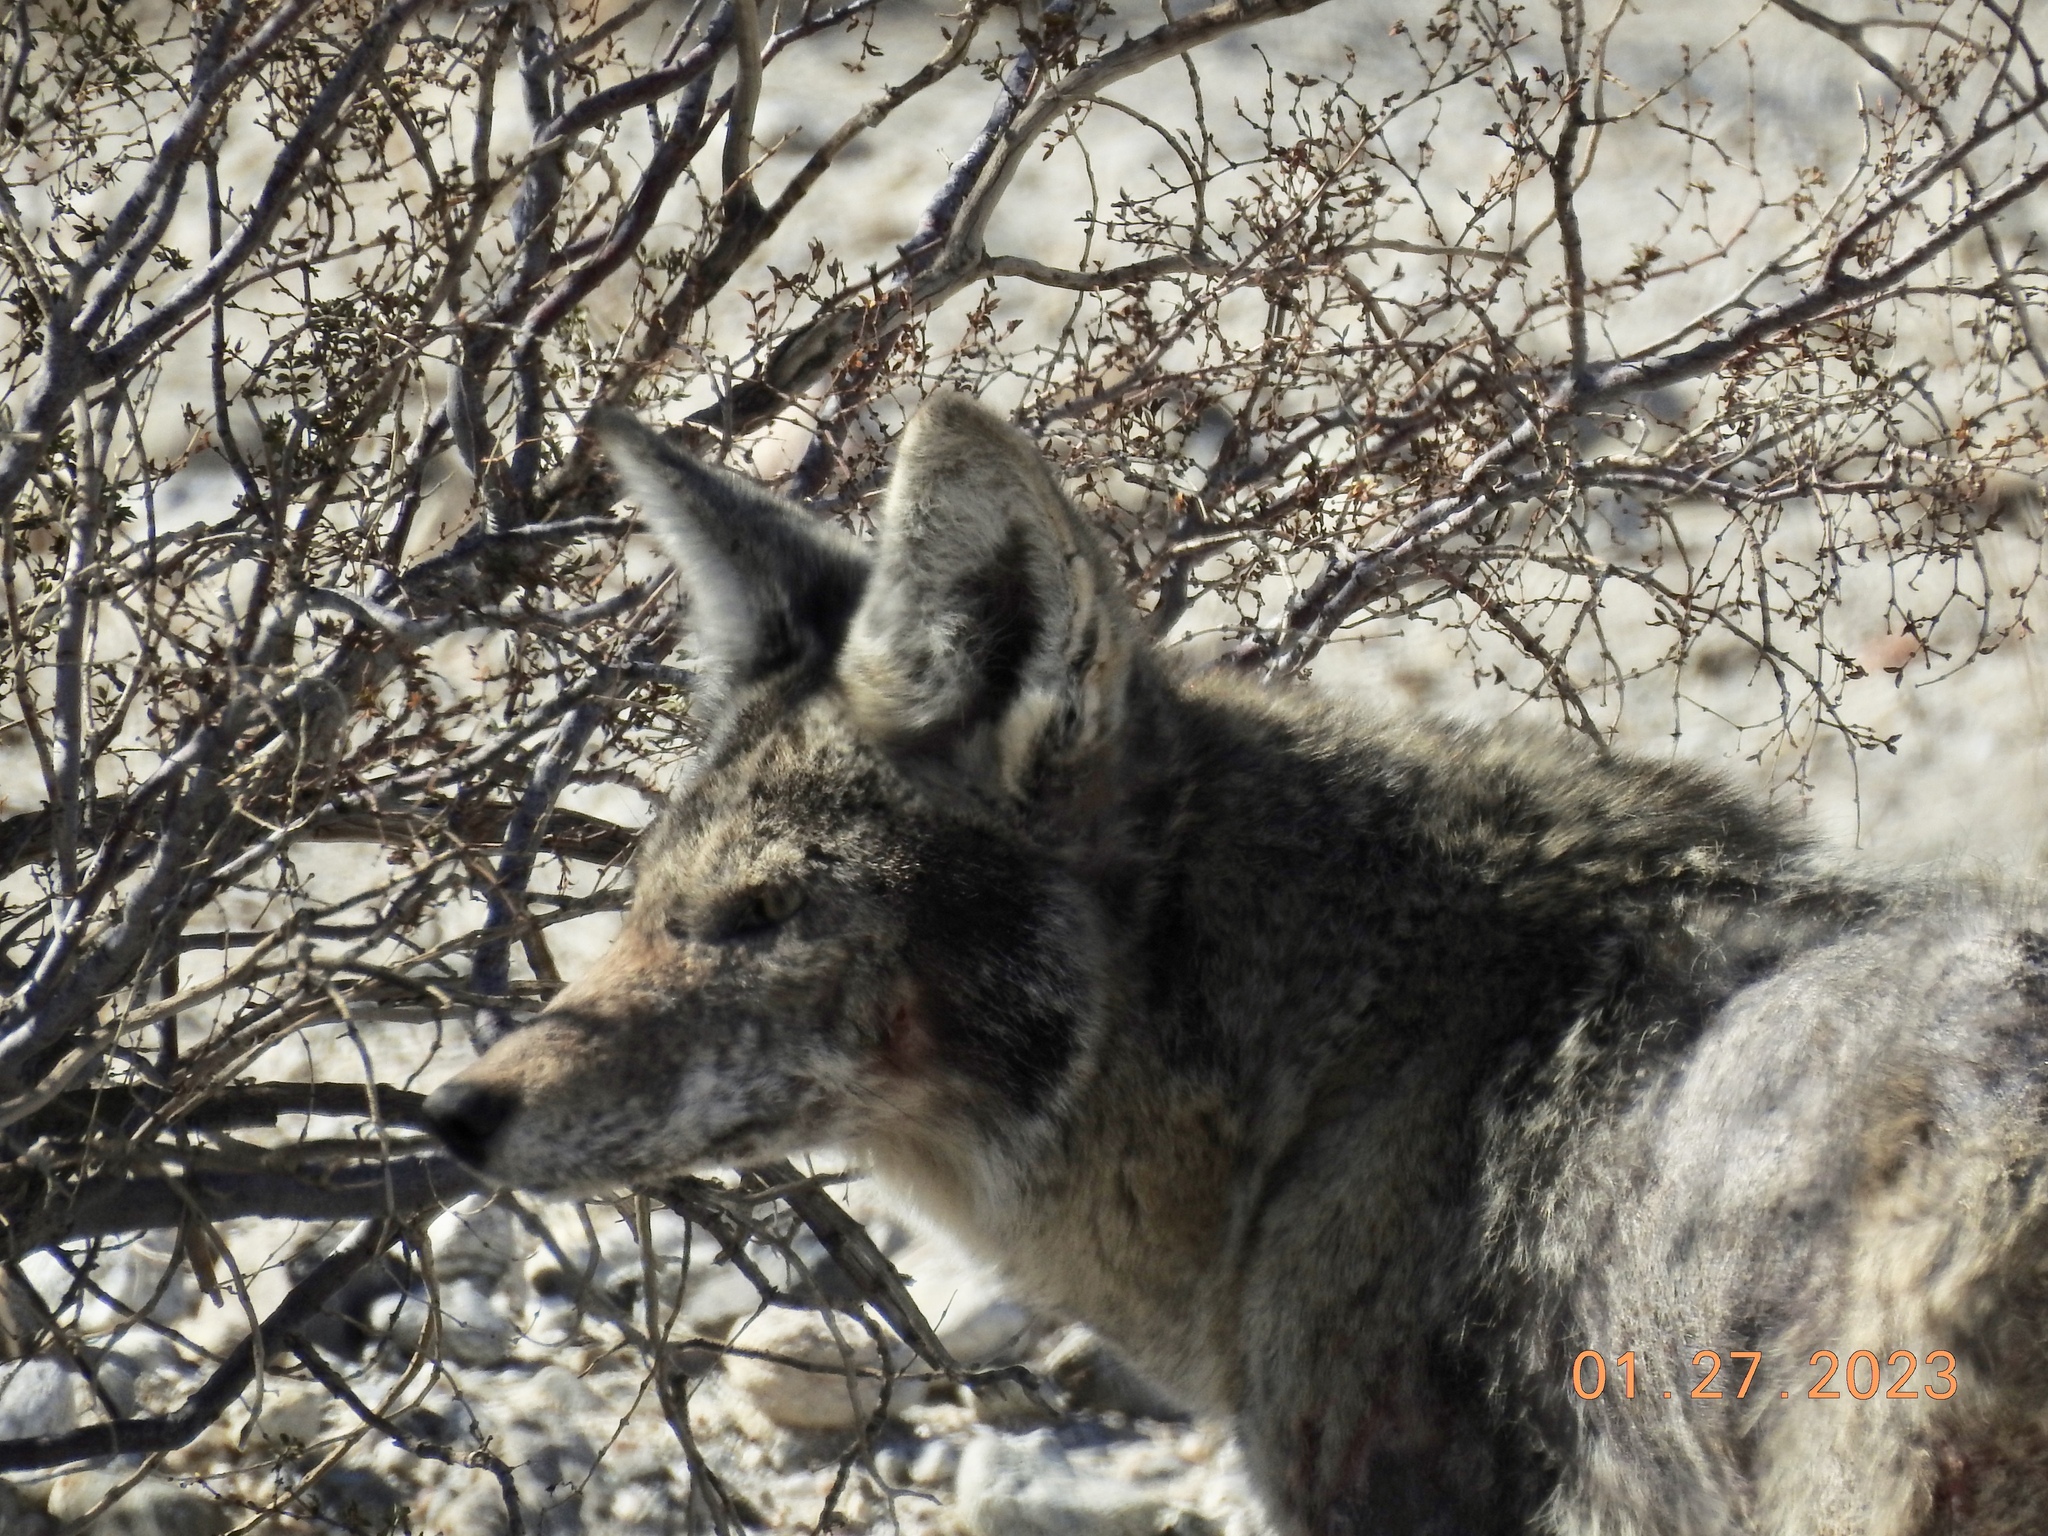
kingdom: Animalia
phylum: Chordata
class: Mammalia
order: Carnivora
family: Canidae
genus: Canis
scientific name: Canis latrans
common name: Coyote
